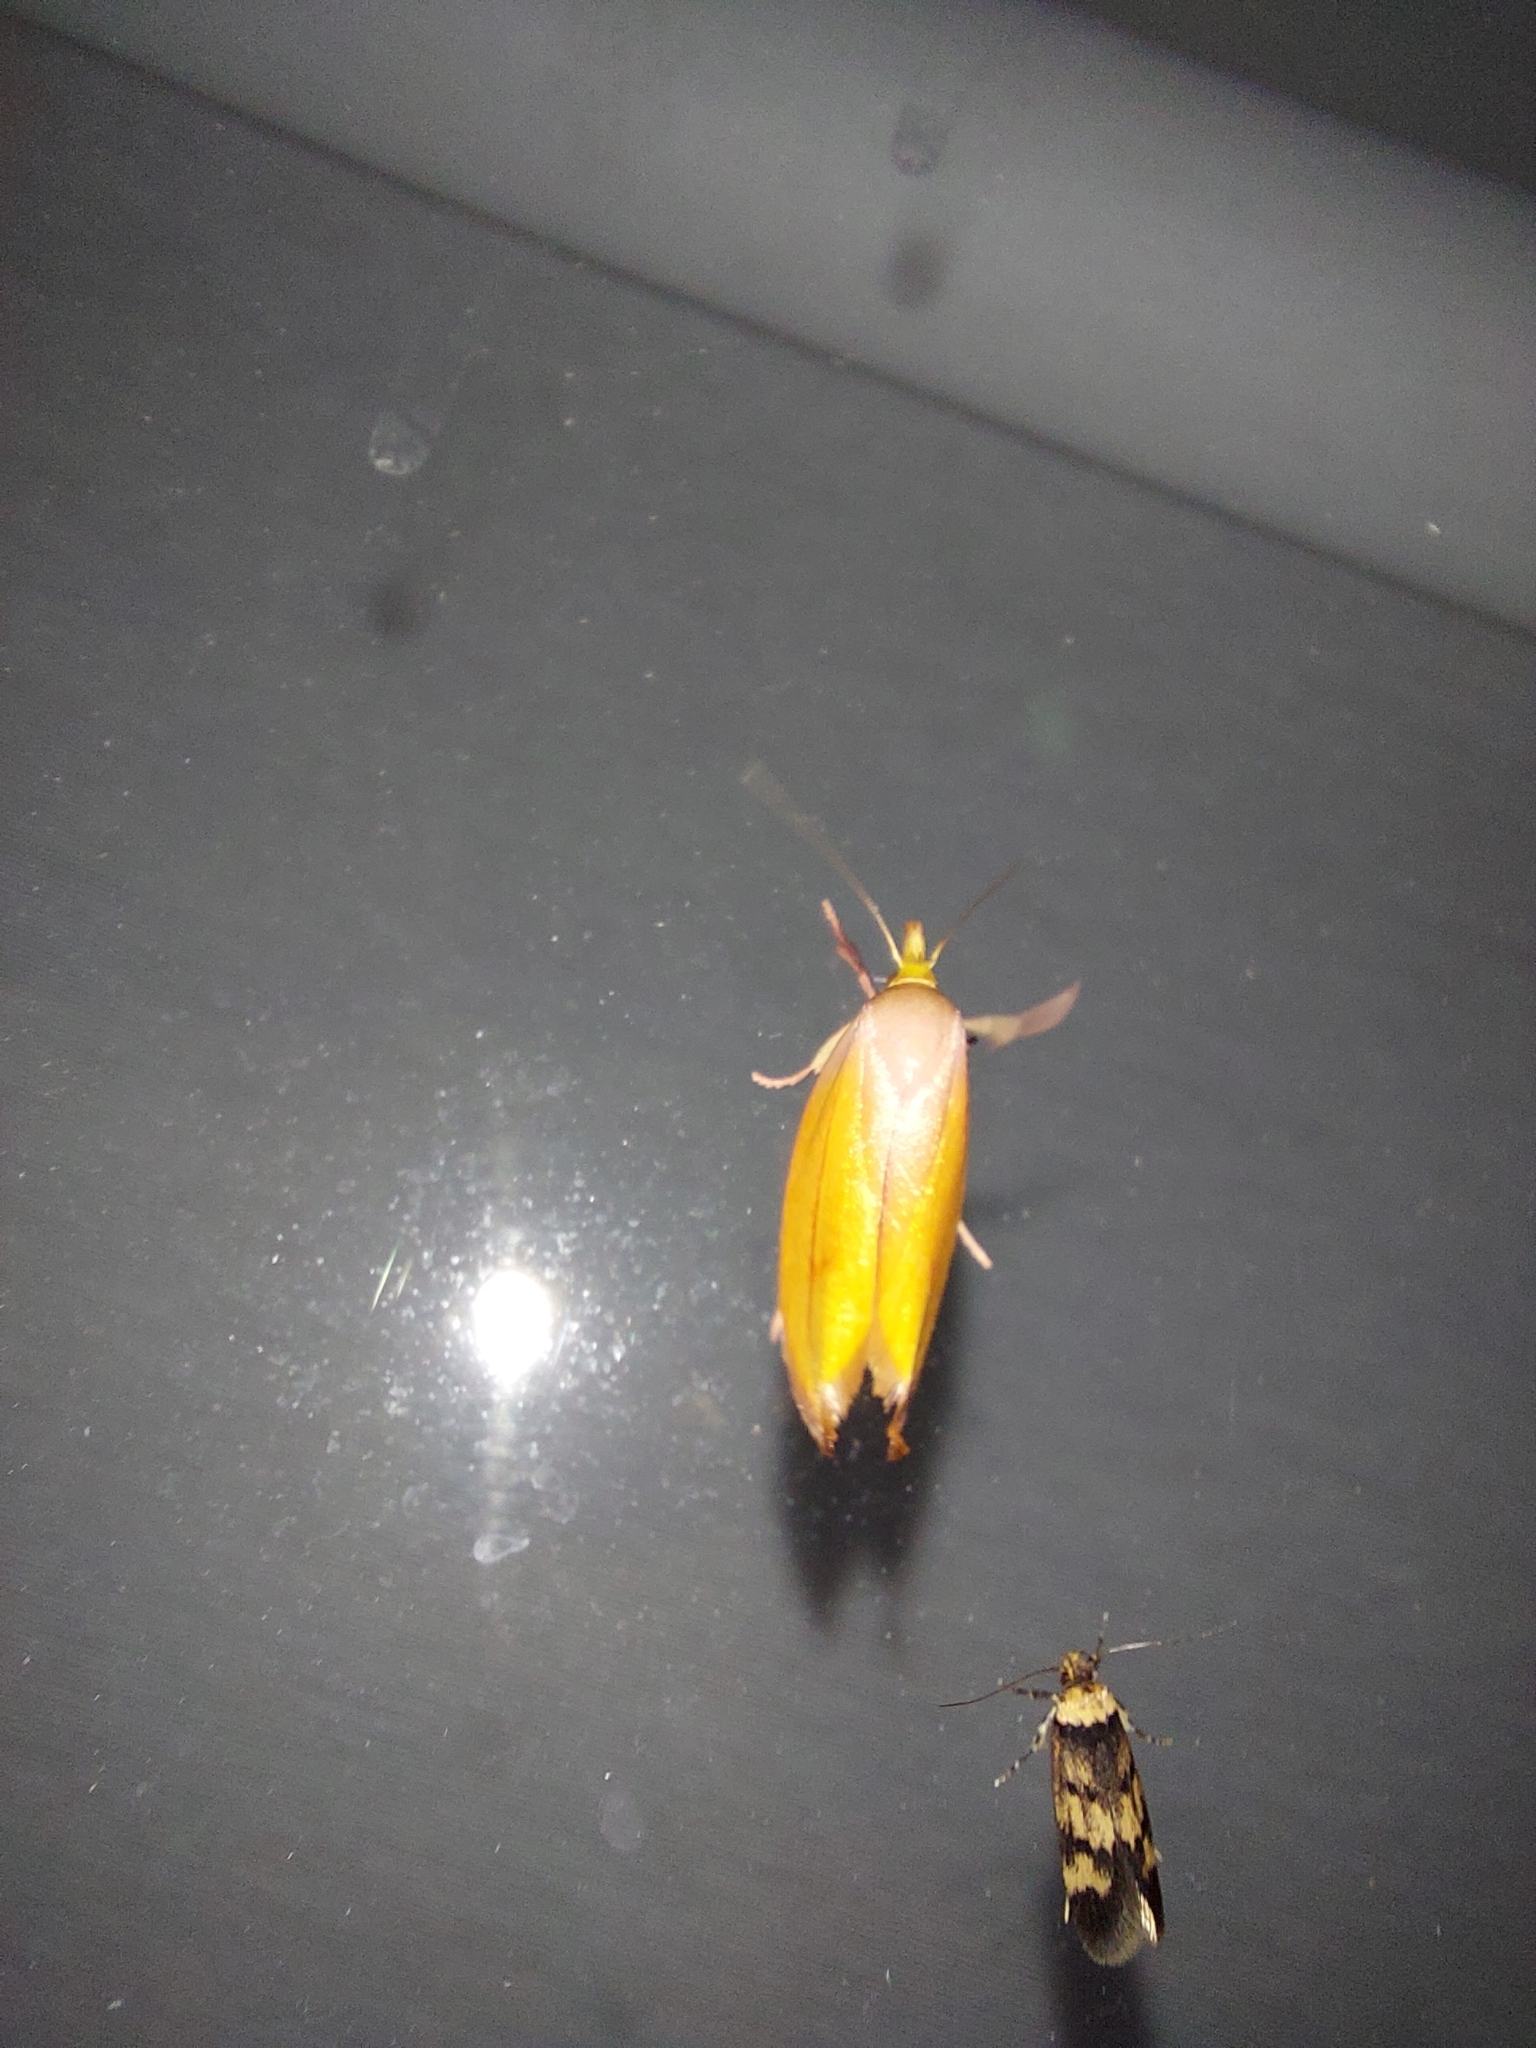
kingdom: Animalia
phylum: Arthropoda
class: Insecta
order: Lepidoptera
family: Oecophoridae
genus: Wingia
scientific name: Wingia aurata
